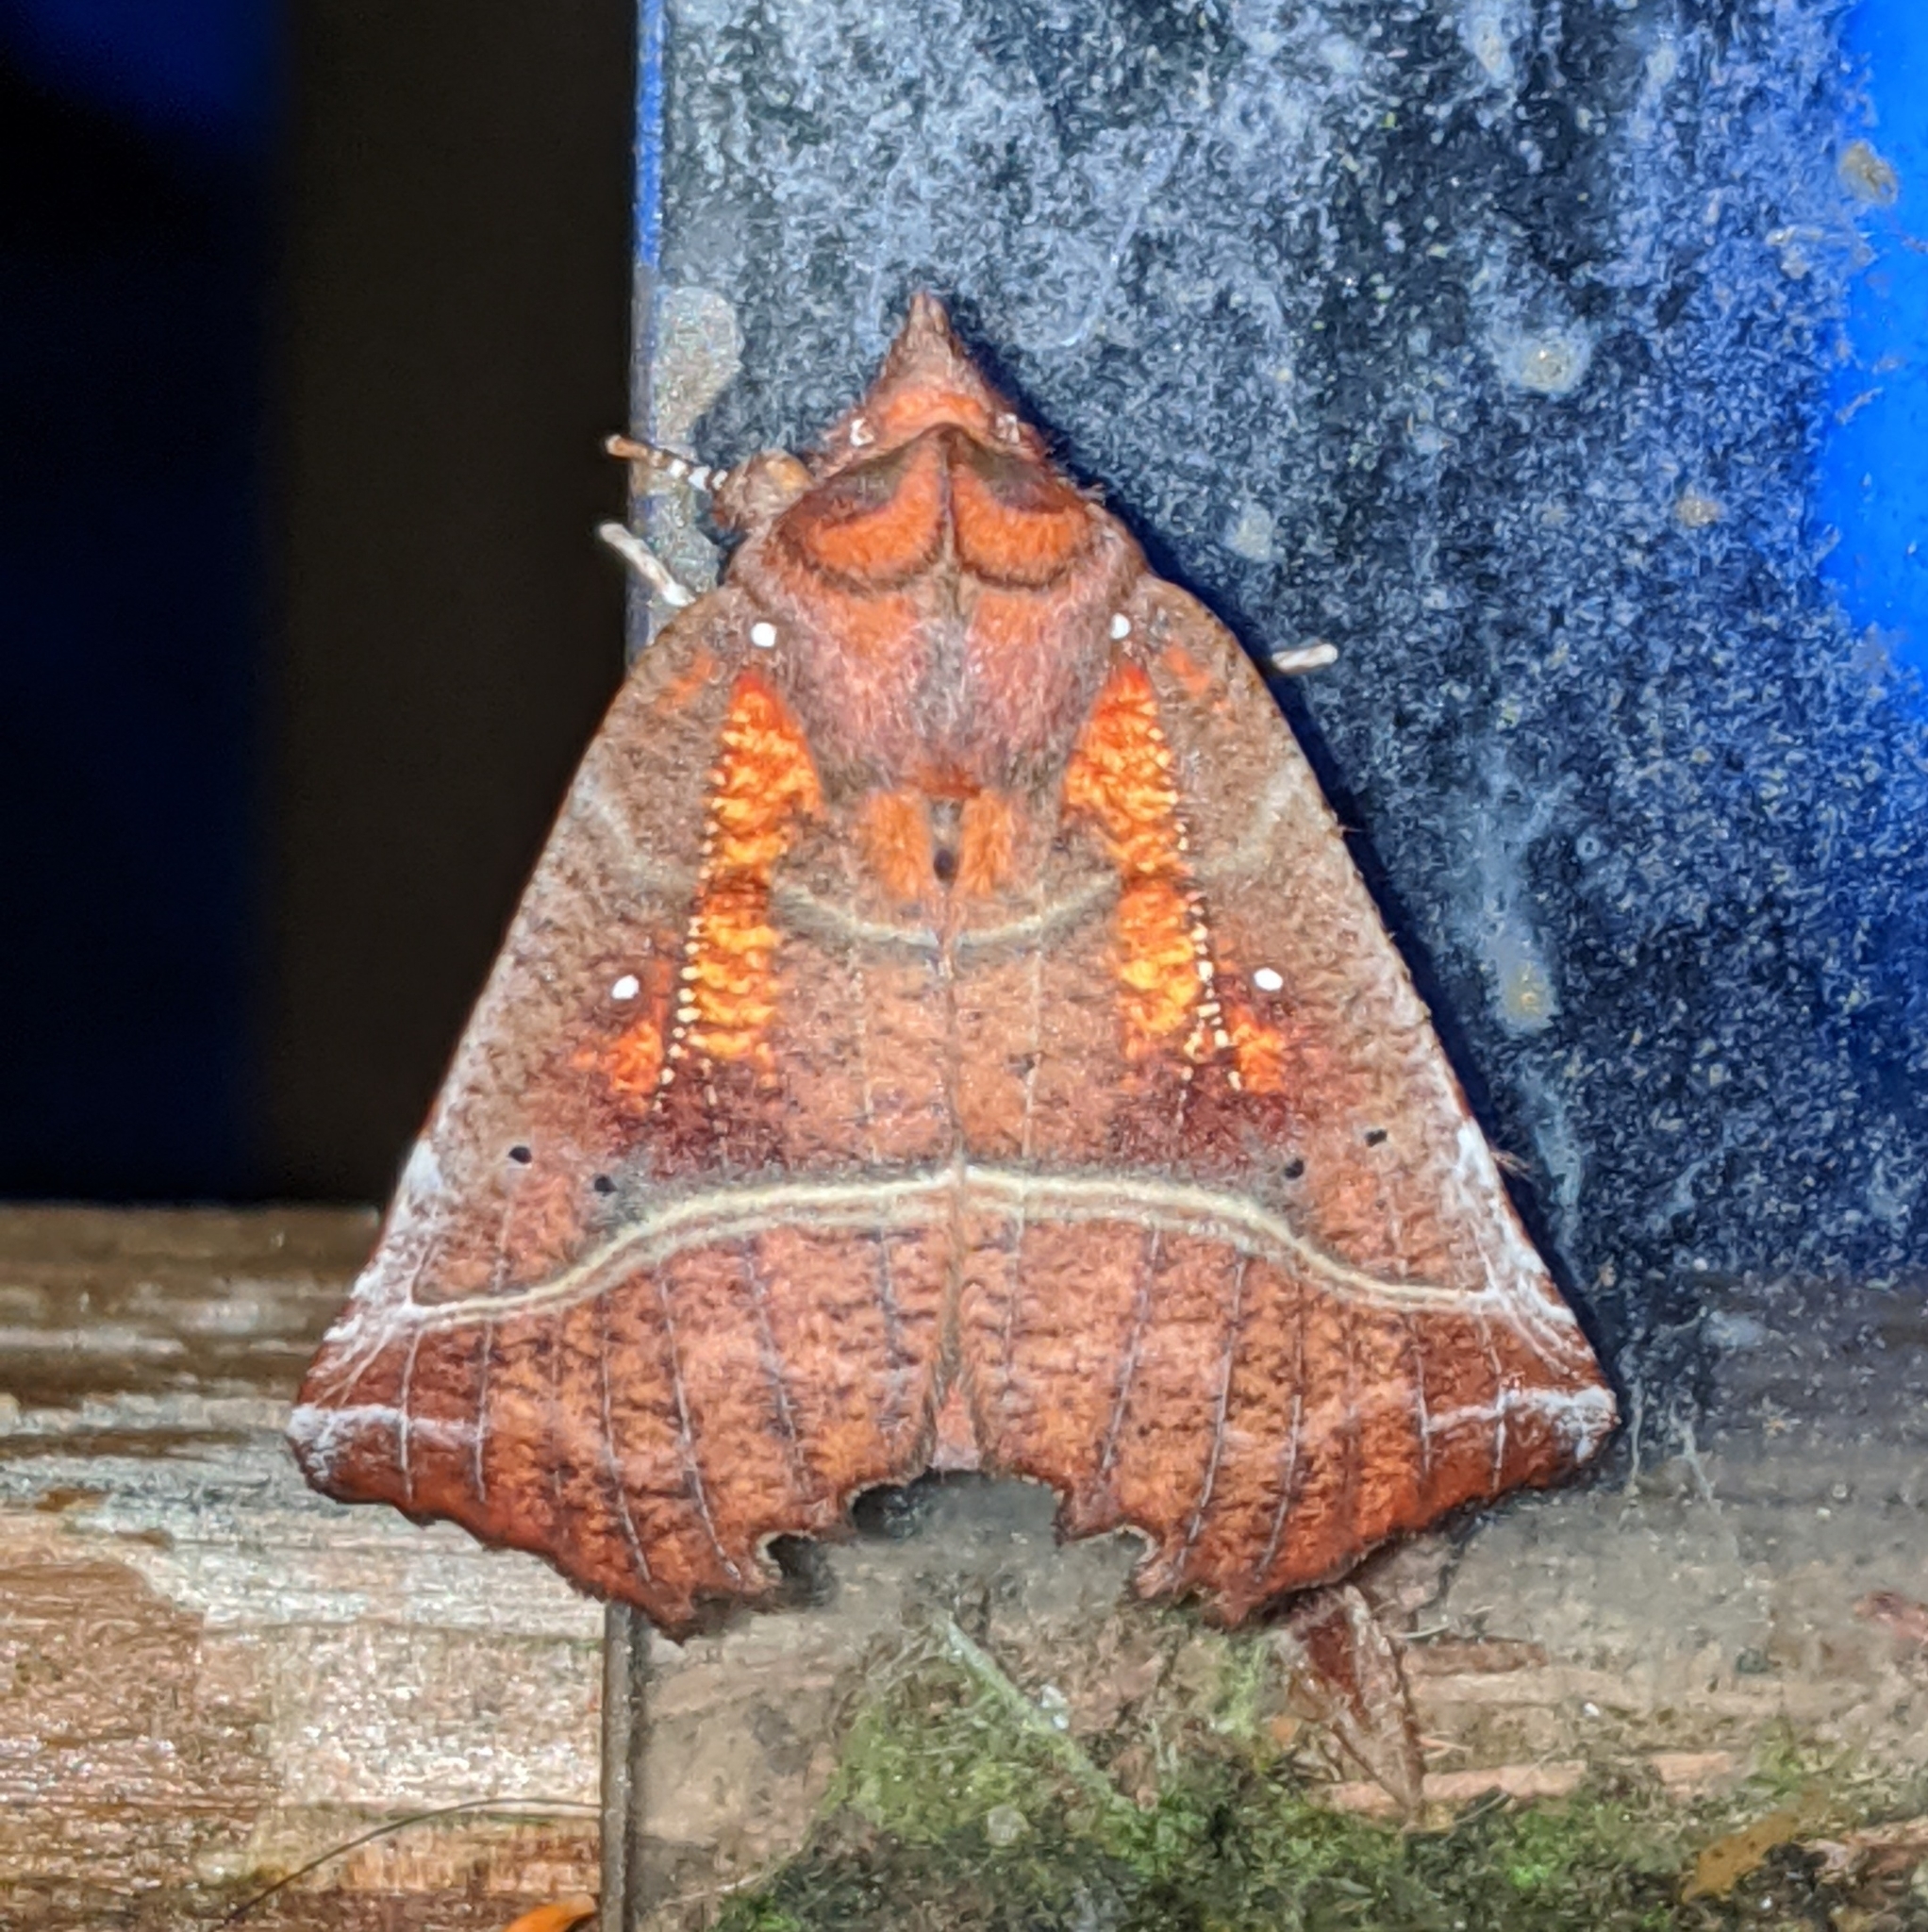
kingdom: Animalia
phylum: Arthropoda
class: Insecta
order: Lepidoptera
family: Erebidae
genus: Scoliopteryx
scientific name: Scoliopteryx libatrix
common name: Herald
